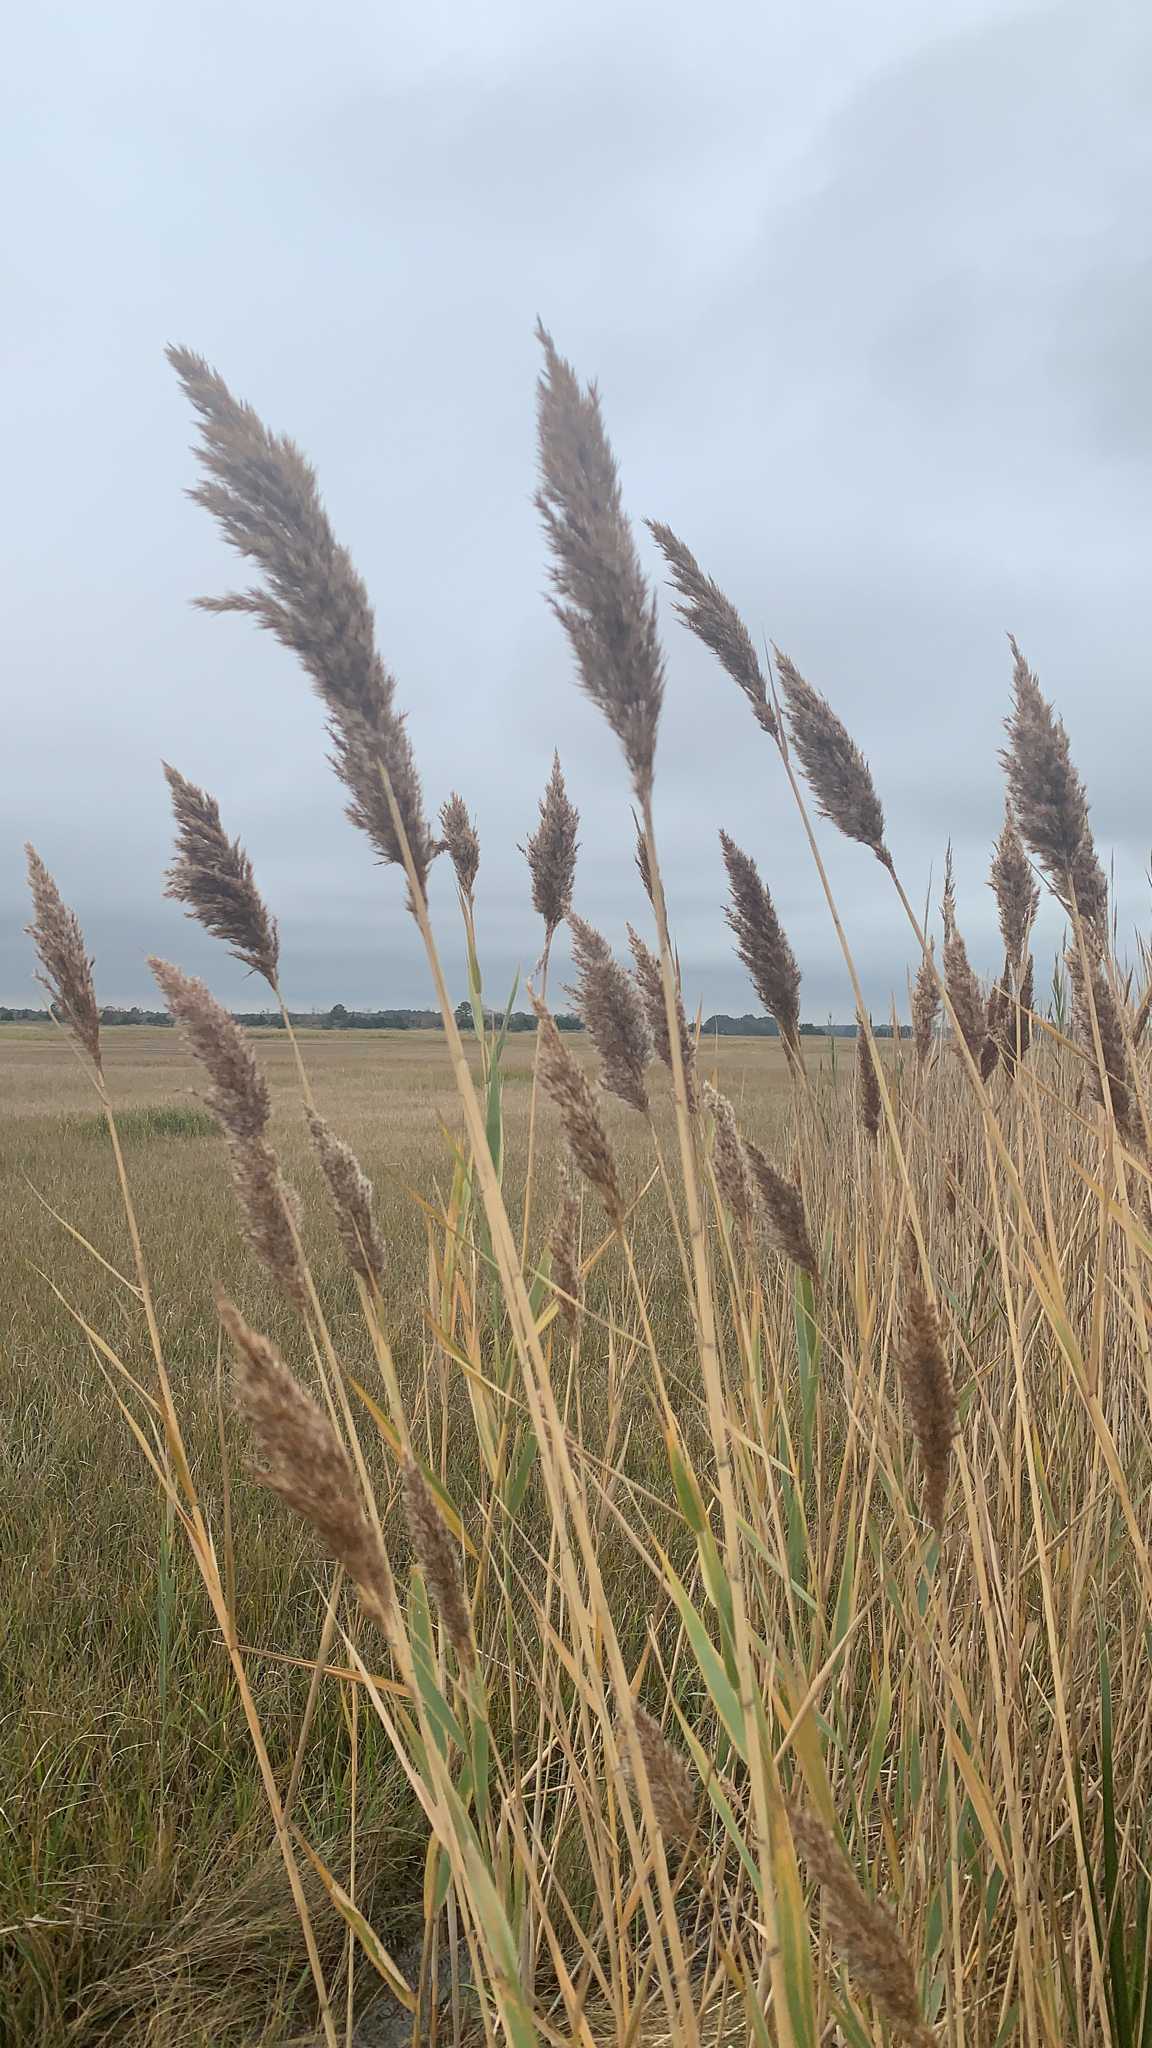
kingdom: Plantae
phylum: Tracheophyta
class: Liliopsida
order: Poales
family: Poaceae
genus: Phragmites
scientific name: Phragmites australis
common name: Common reed
